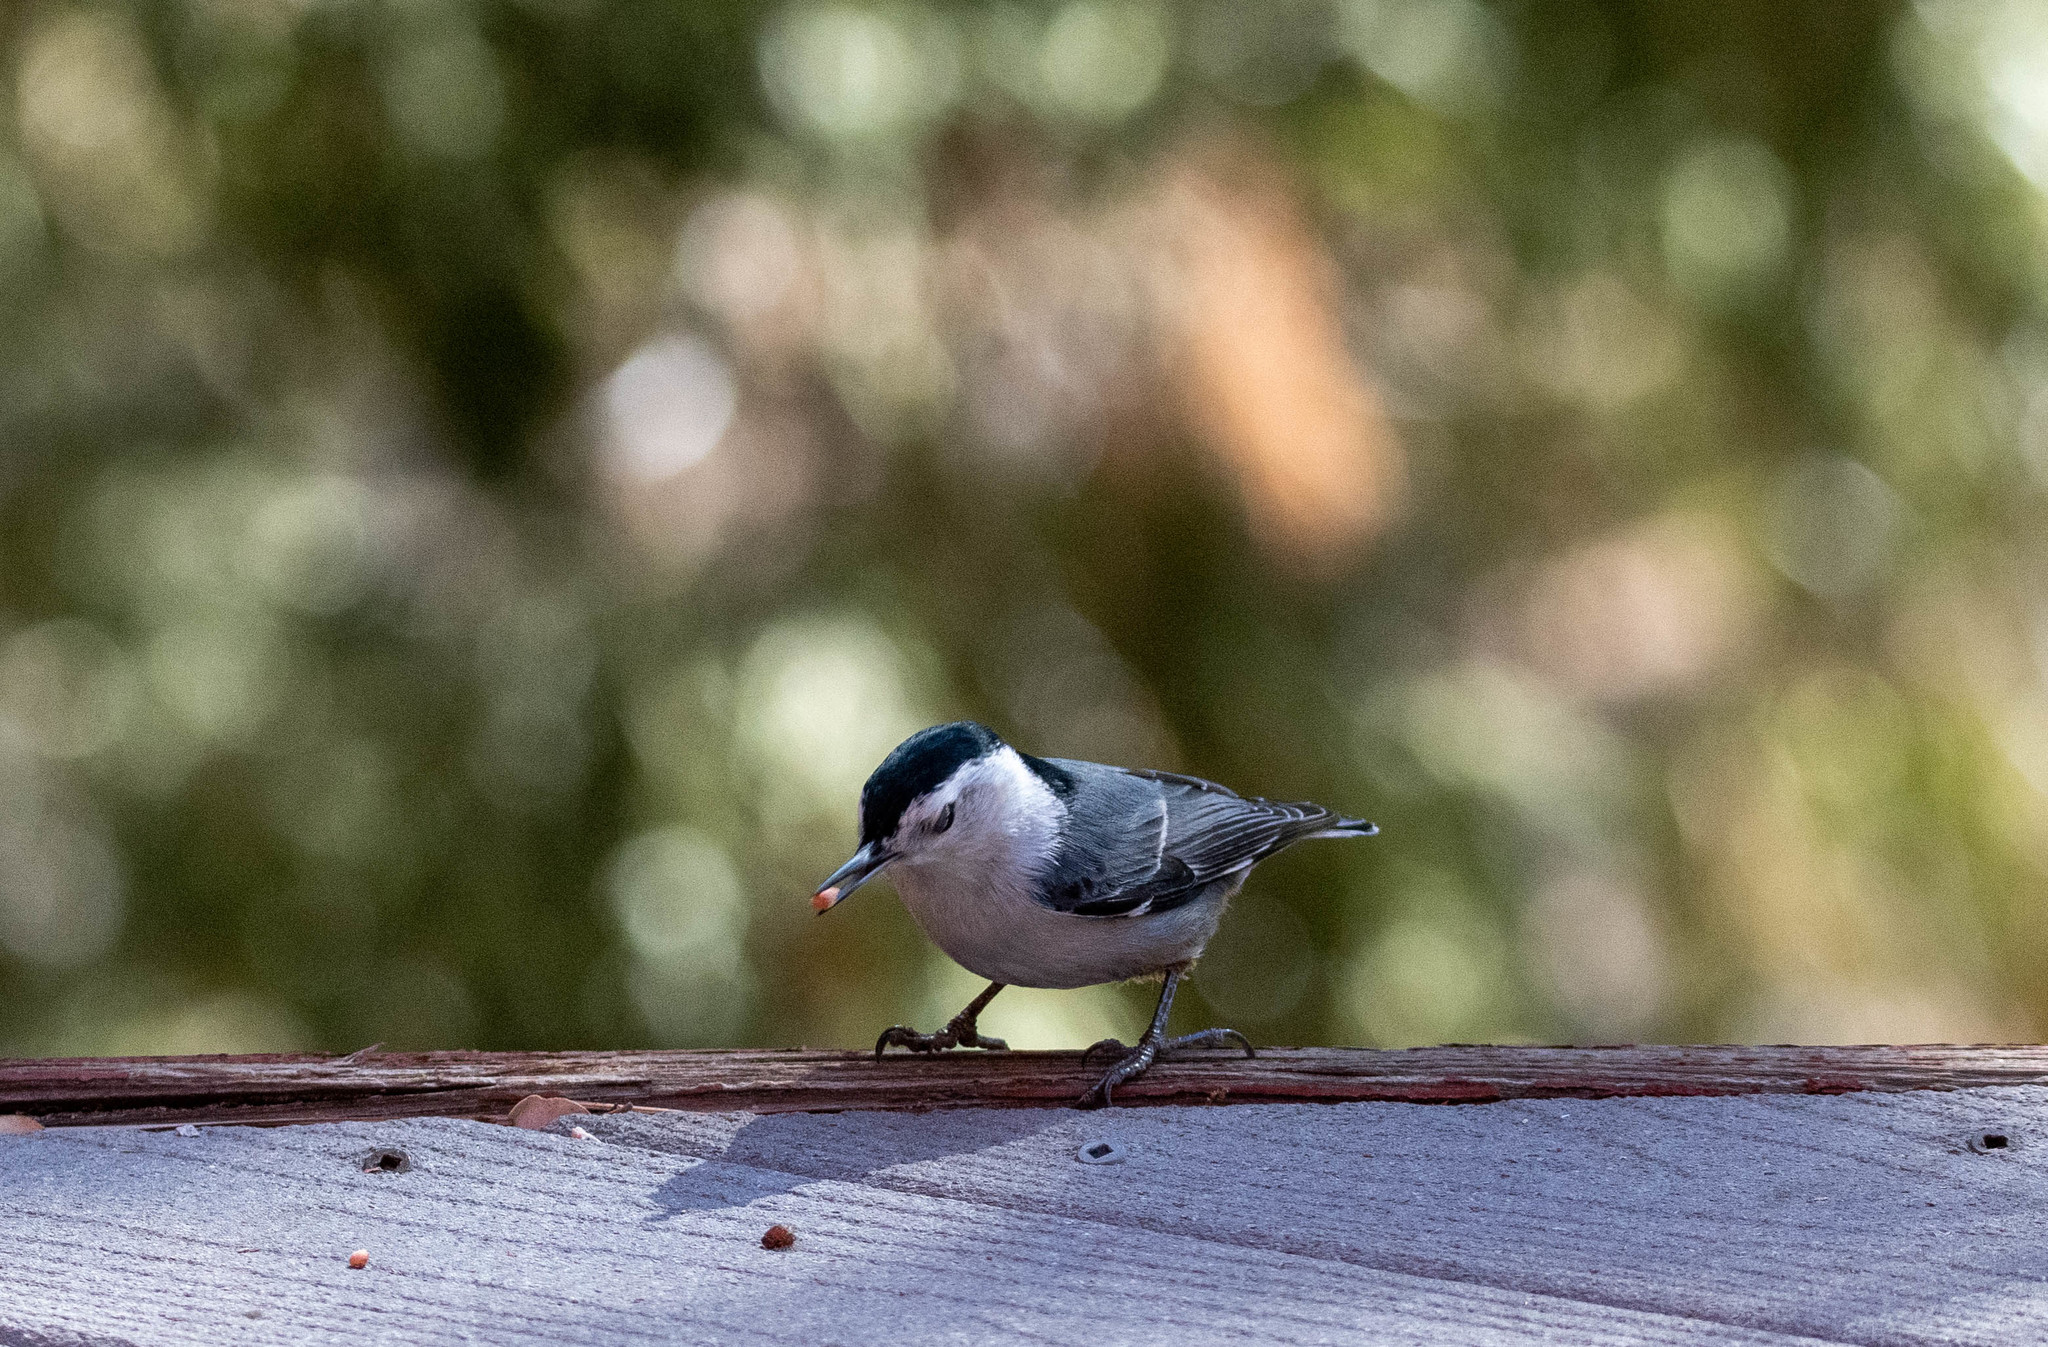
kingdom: Animalia
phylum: Chordata
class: Aves
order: Passeriformes
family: Sittidae
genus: Sitta
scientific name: Sitta carolinensis
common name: White-breasted nuthatch
